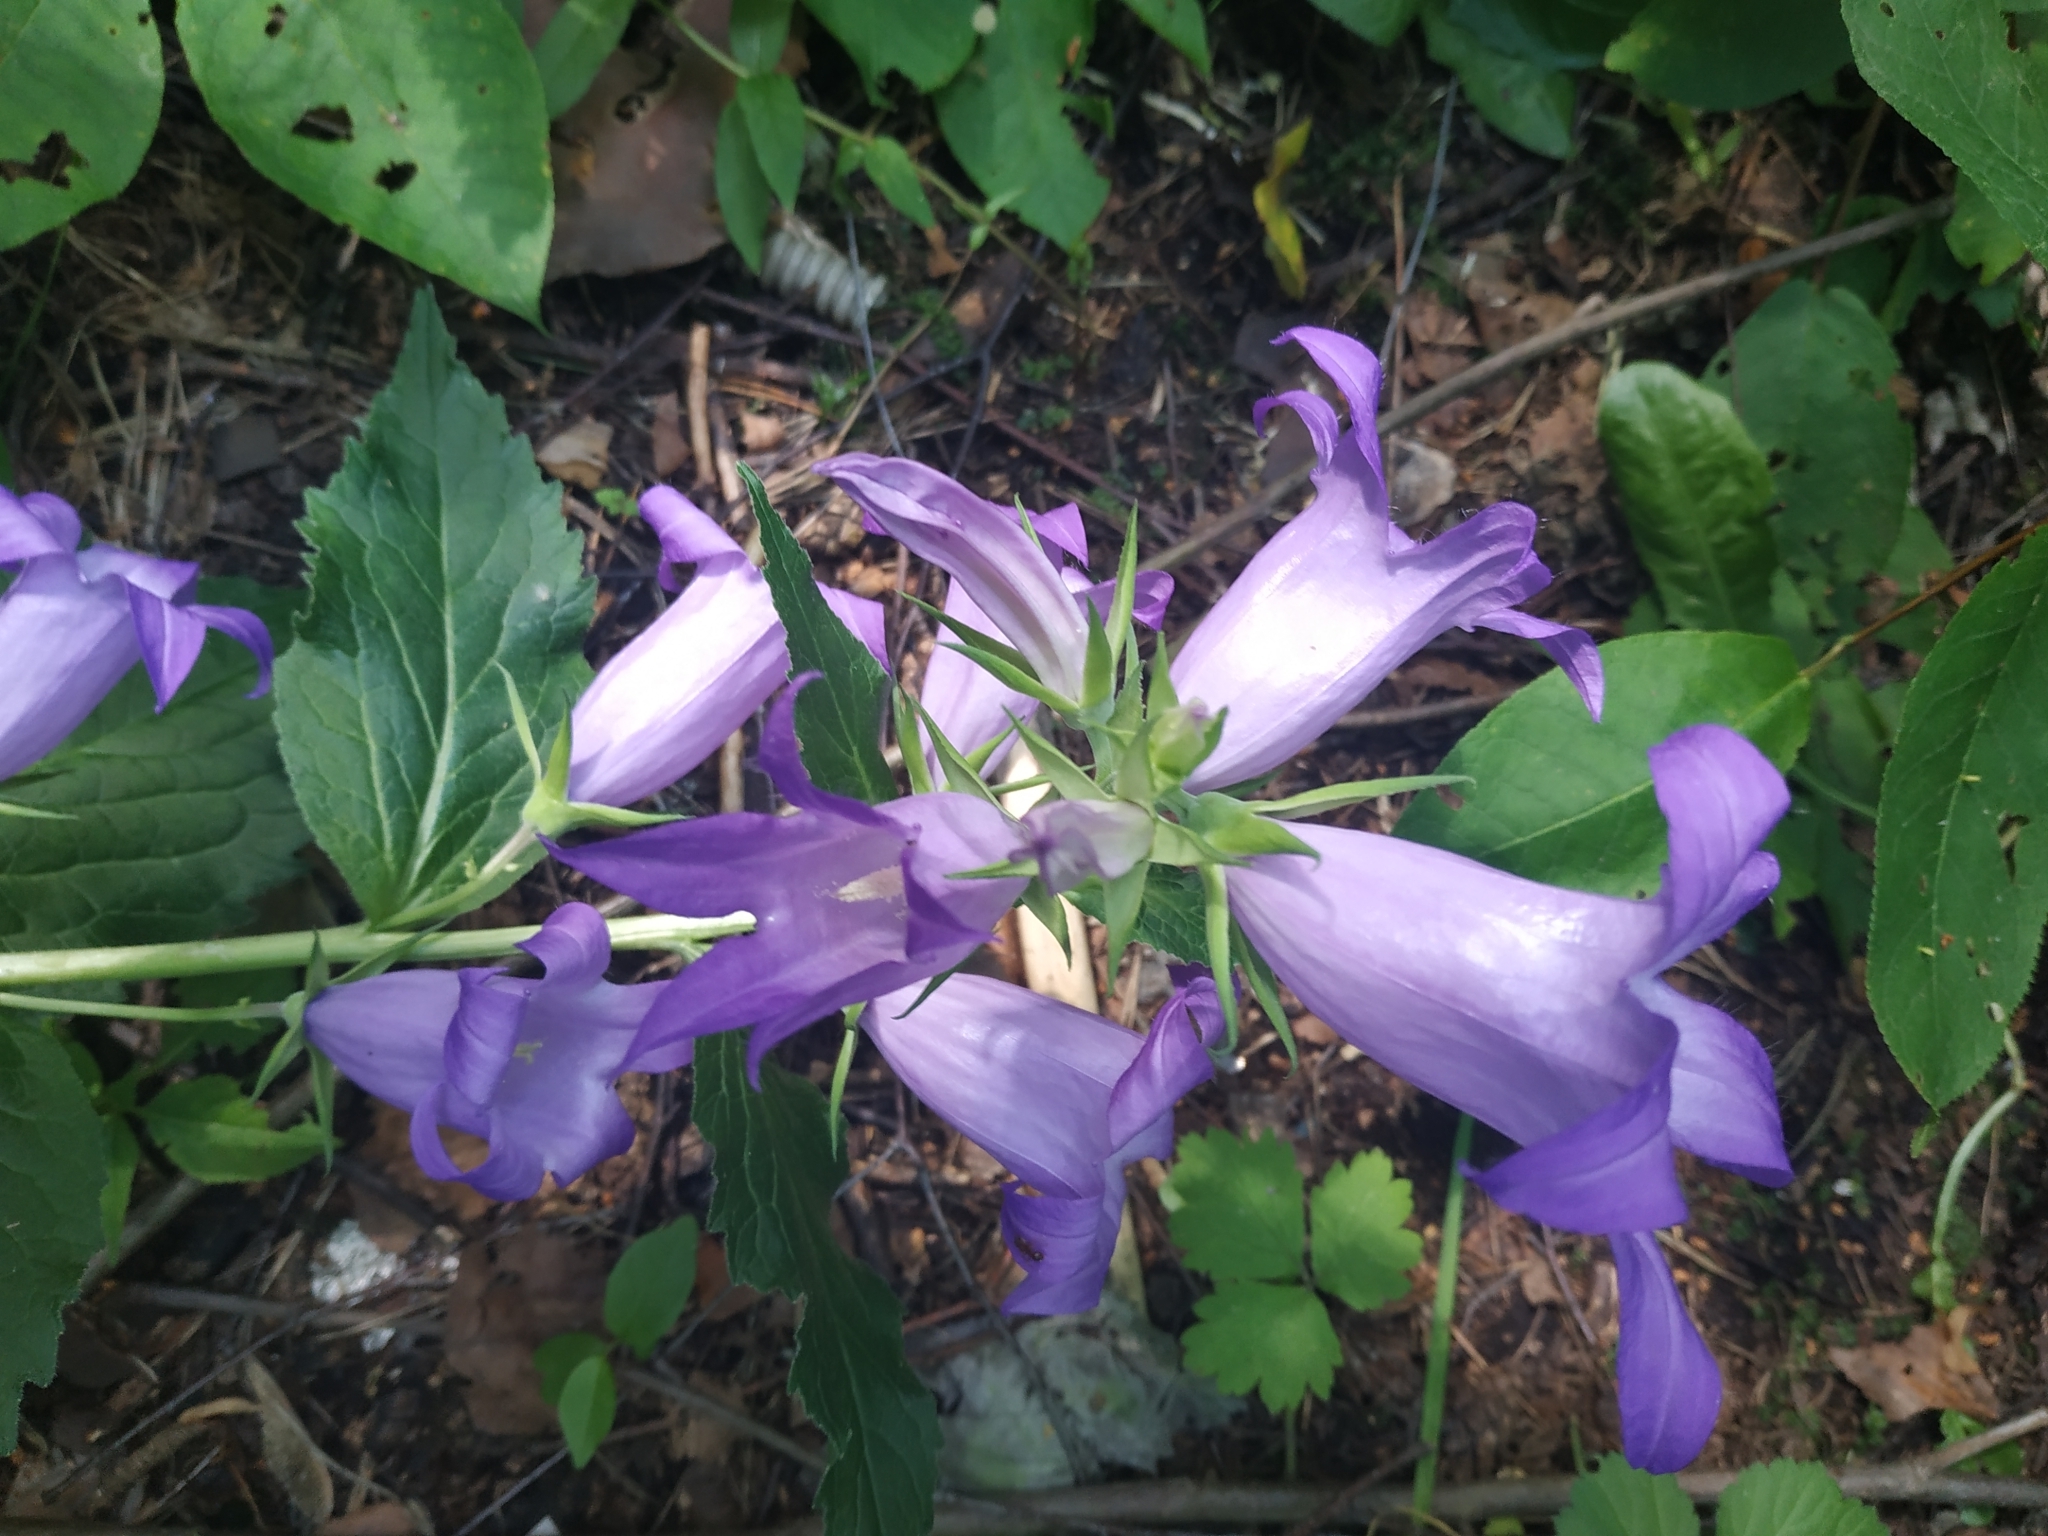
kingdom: Plantae
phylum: Tracheophyta
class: Magnoliopsida
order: Asterales
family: Campanulaceae
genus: Campanula
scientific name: Campanula latifolia
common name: Giant bellflower
